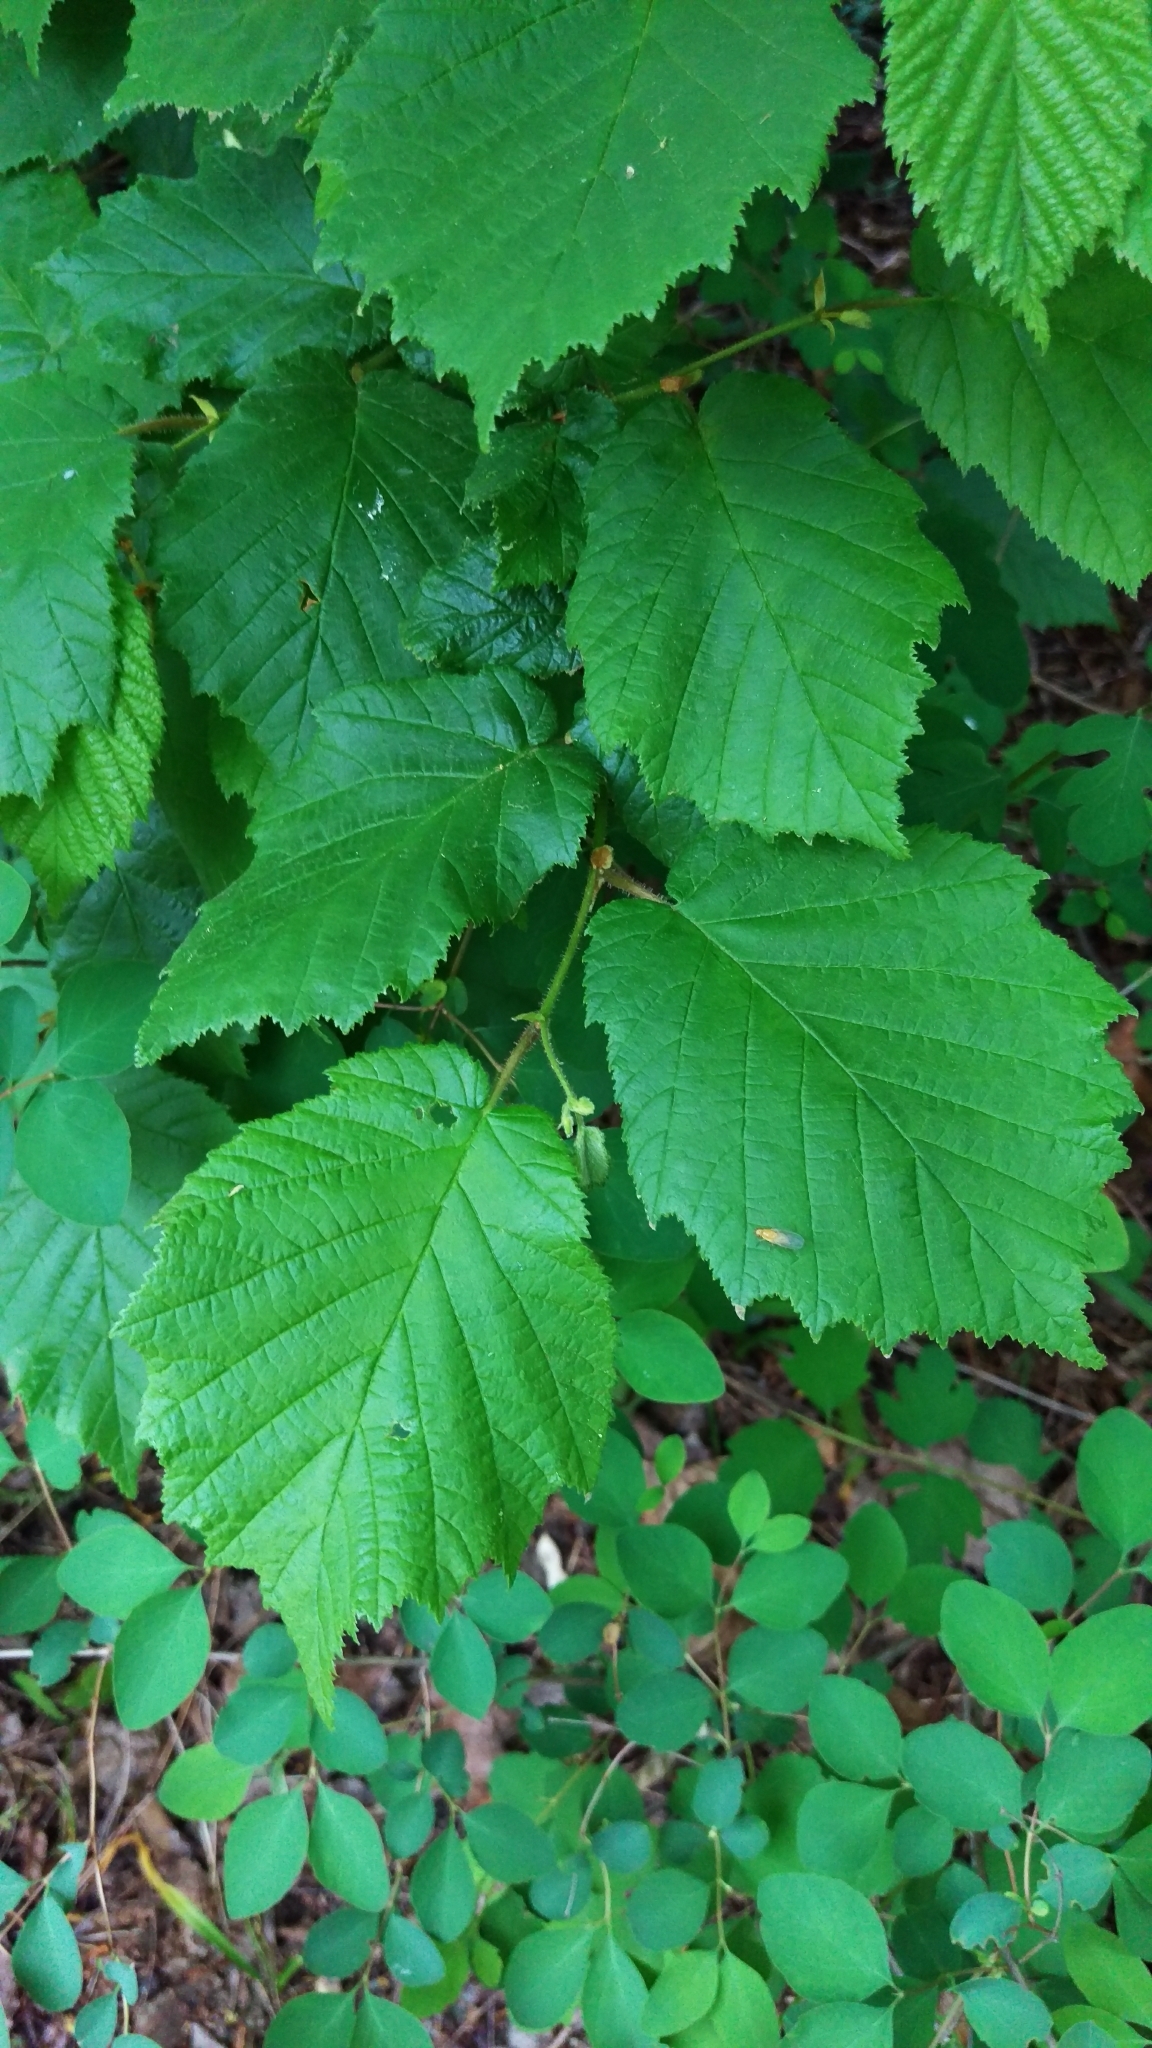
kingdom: Plantae
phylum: Tracheophyta
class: Magnoliopsida
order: Fagales
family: Betulaceae
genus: Corylus
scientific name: Corylus avellana
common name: European hazel
